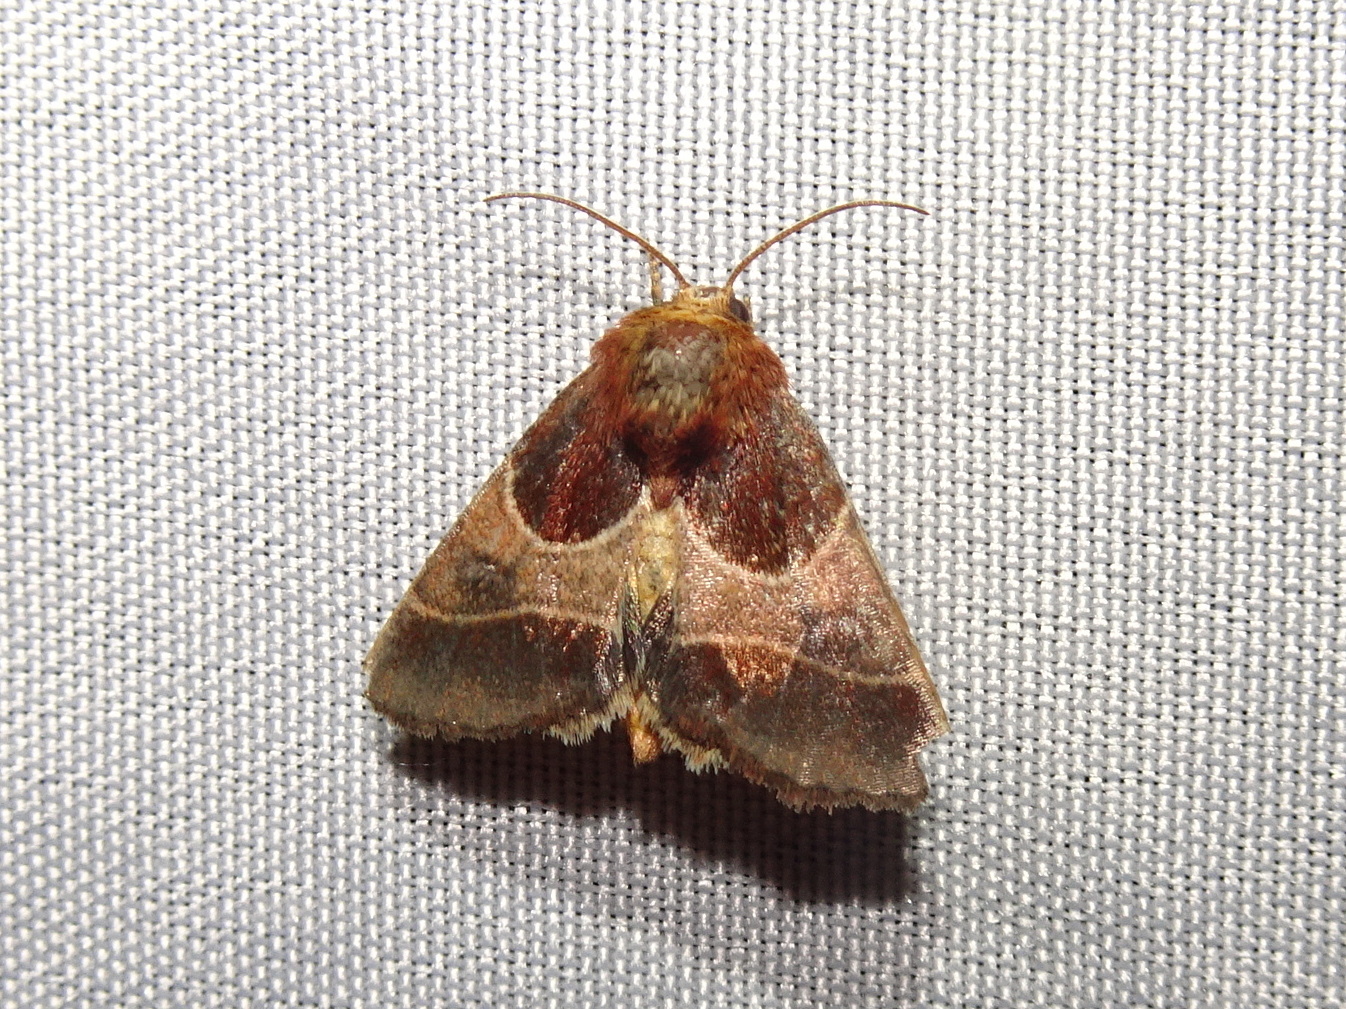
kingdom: Animalia
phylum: Arthropoda
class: Insecta
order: Lepidoptera
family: Noctuidae
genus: Schinia
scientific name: Schinia arcigera
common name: Arcigera flower moth
